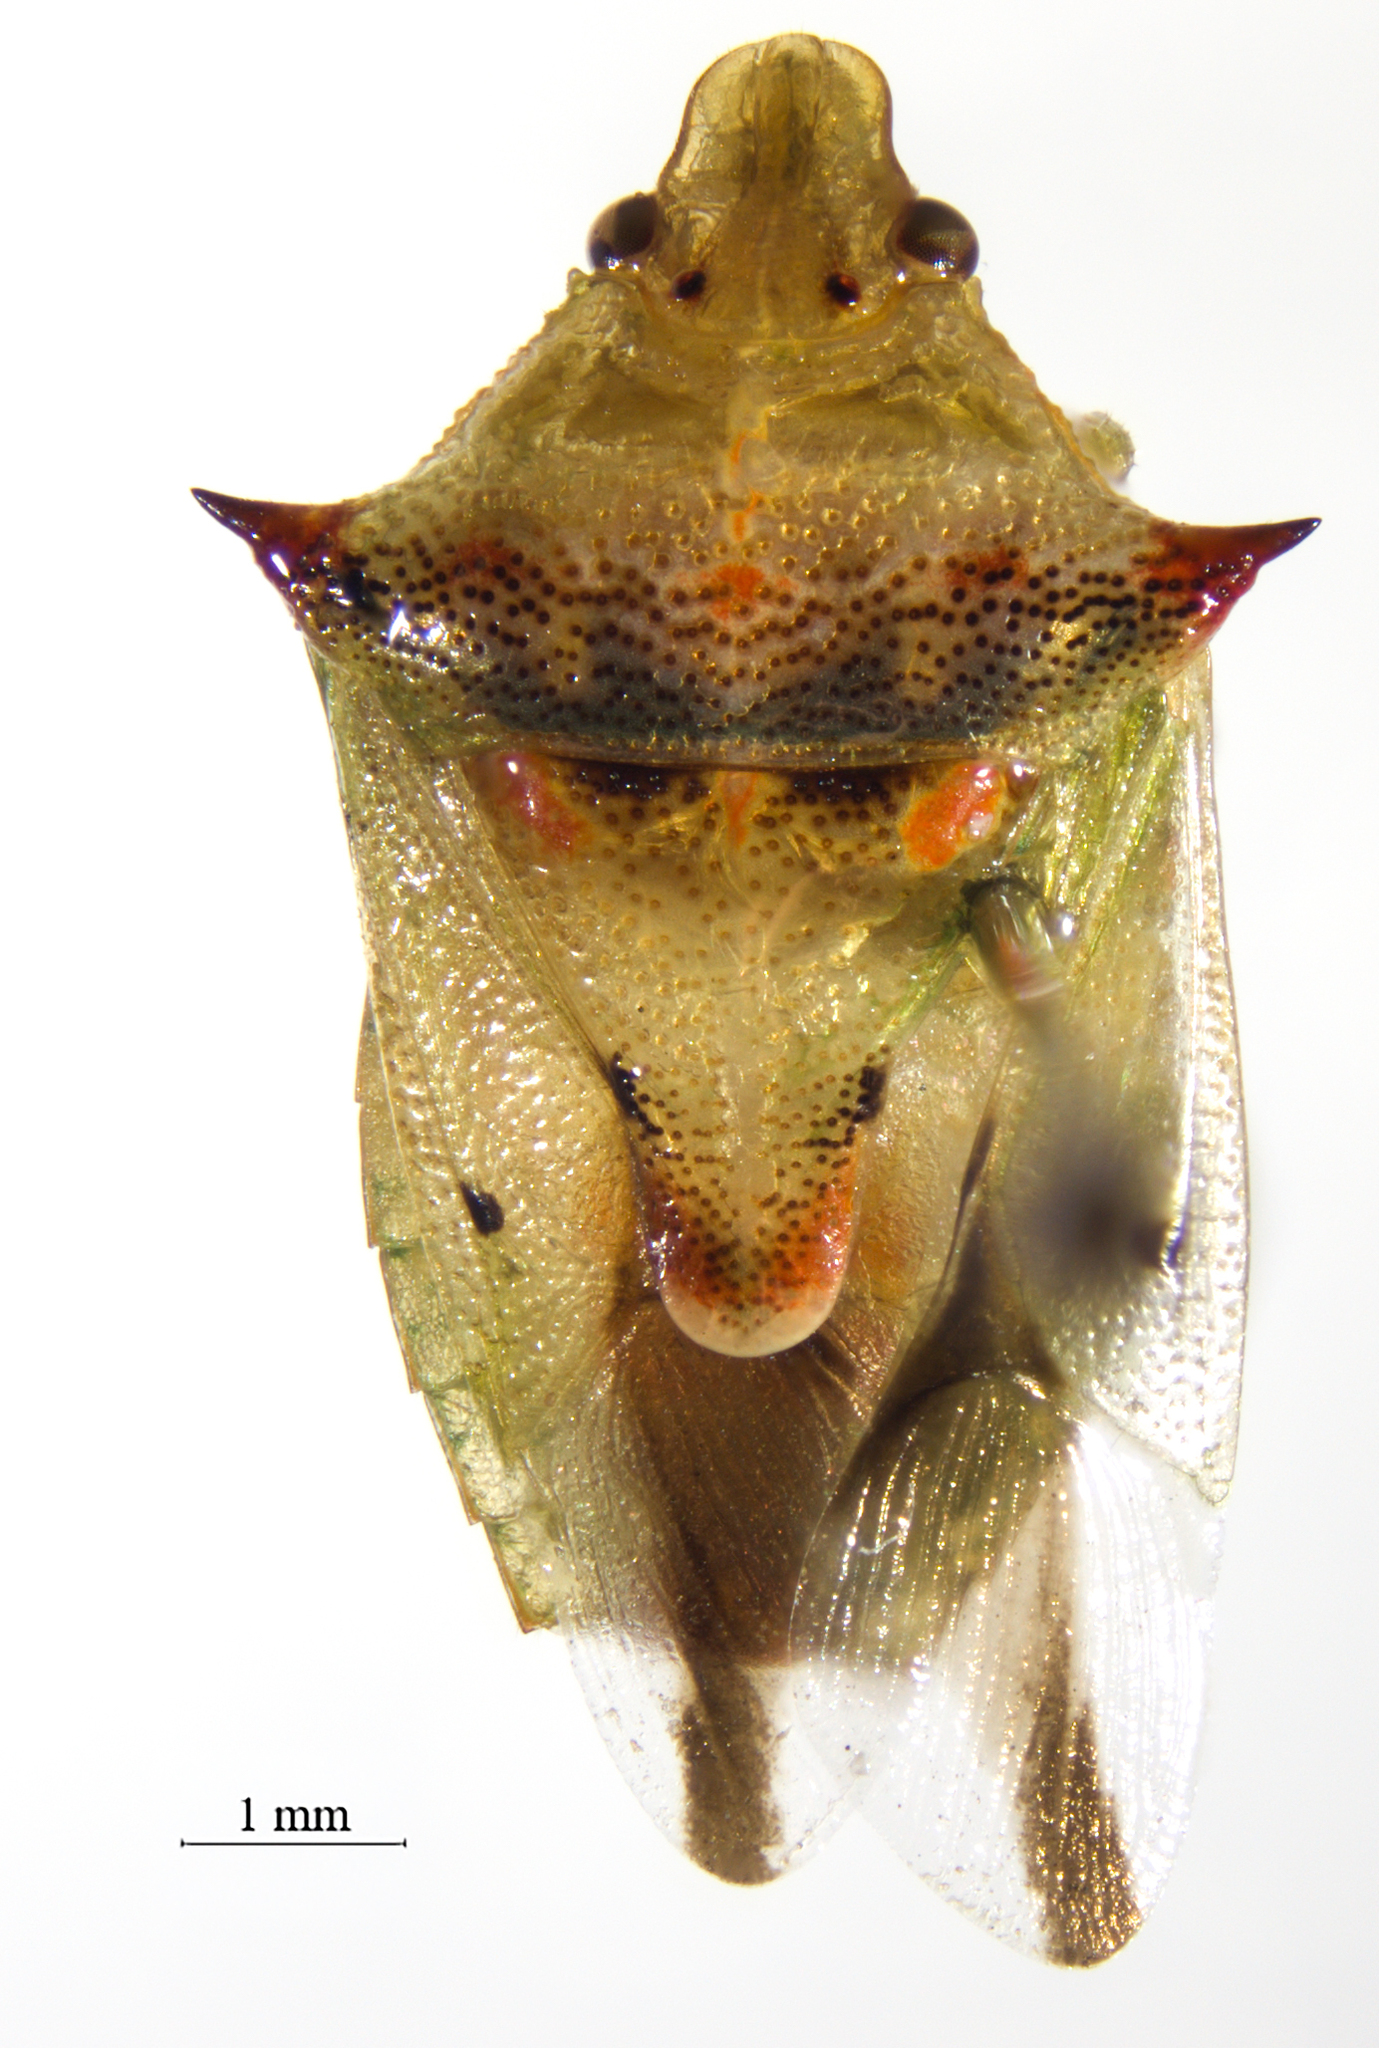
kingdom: Animalia
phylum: Arthropoda
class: Insecta
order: Hemiptera
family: Pentatomidae
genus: Tylospilus
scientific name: Tylospilus acutissimus
